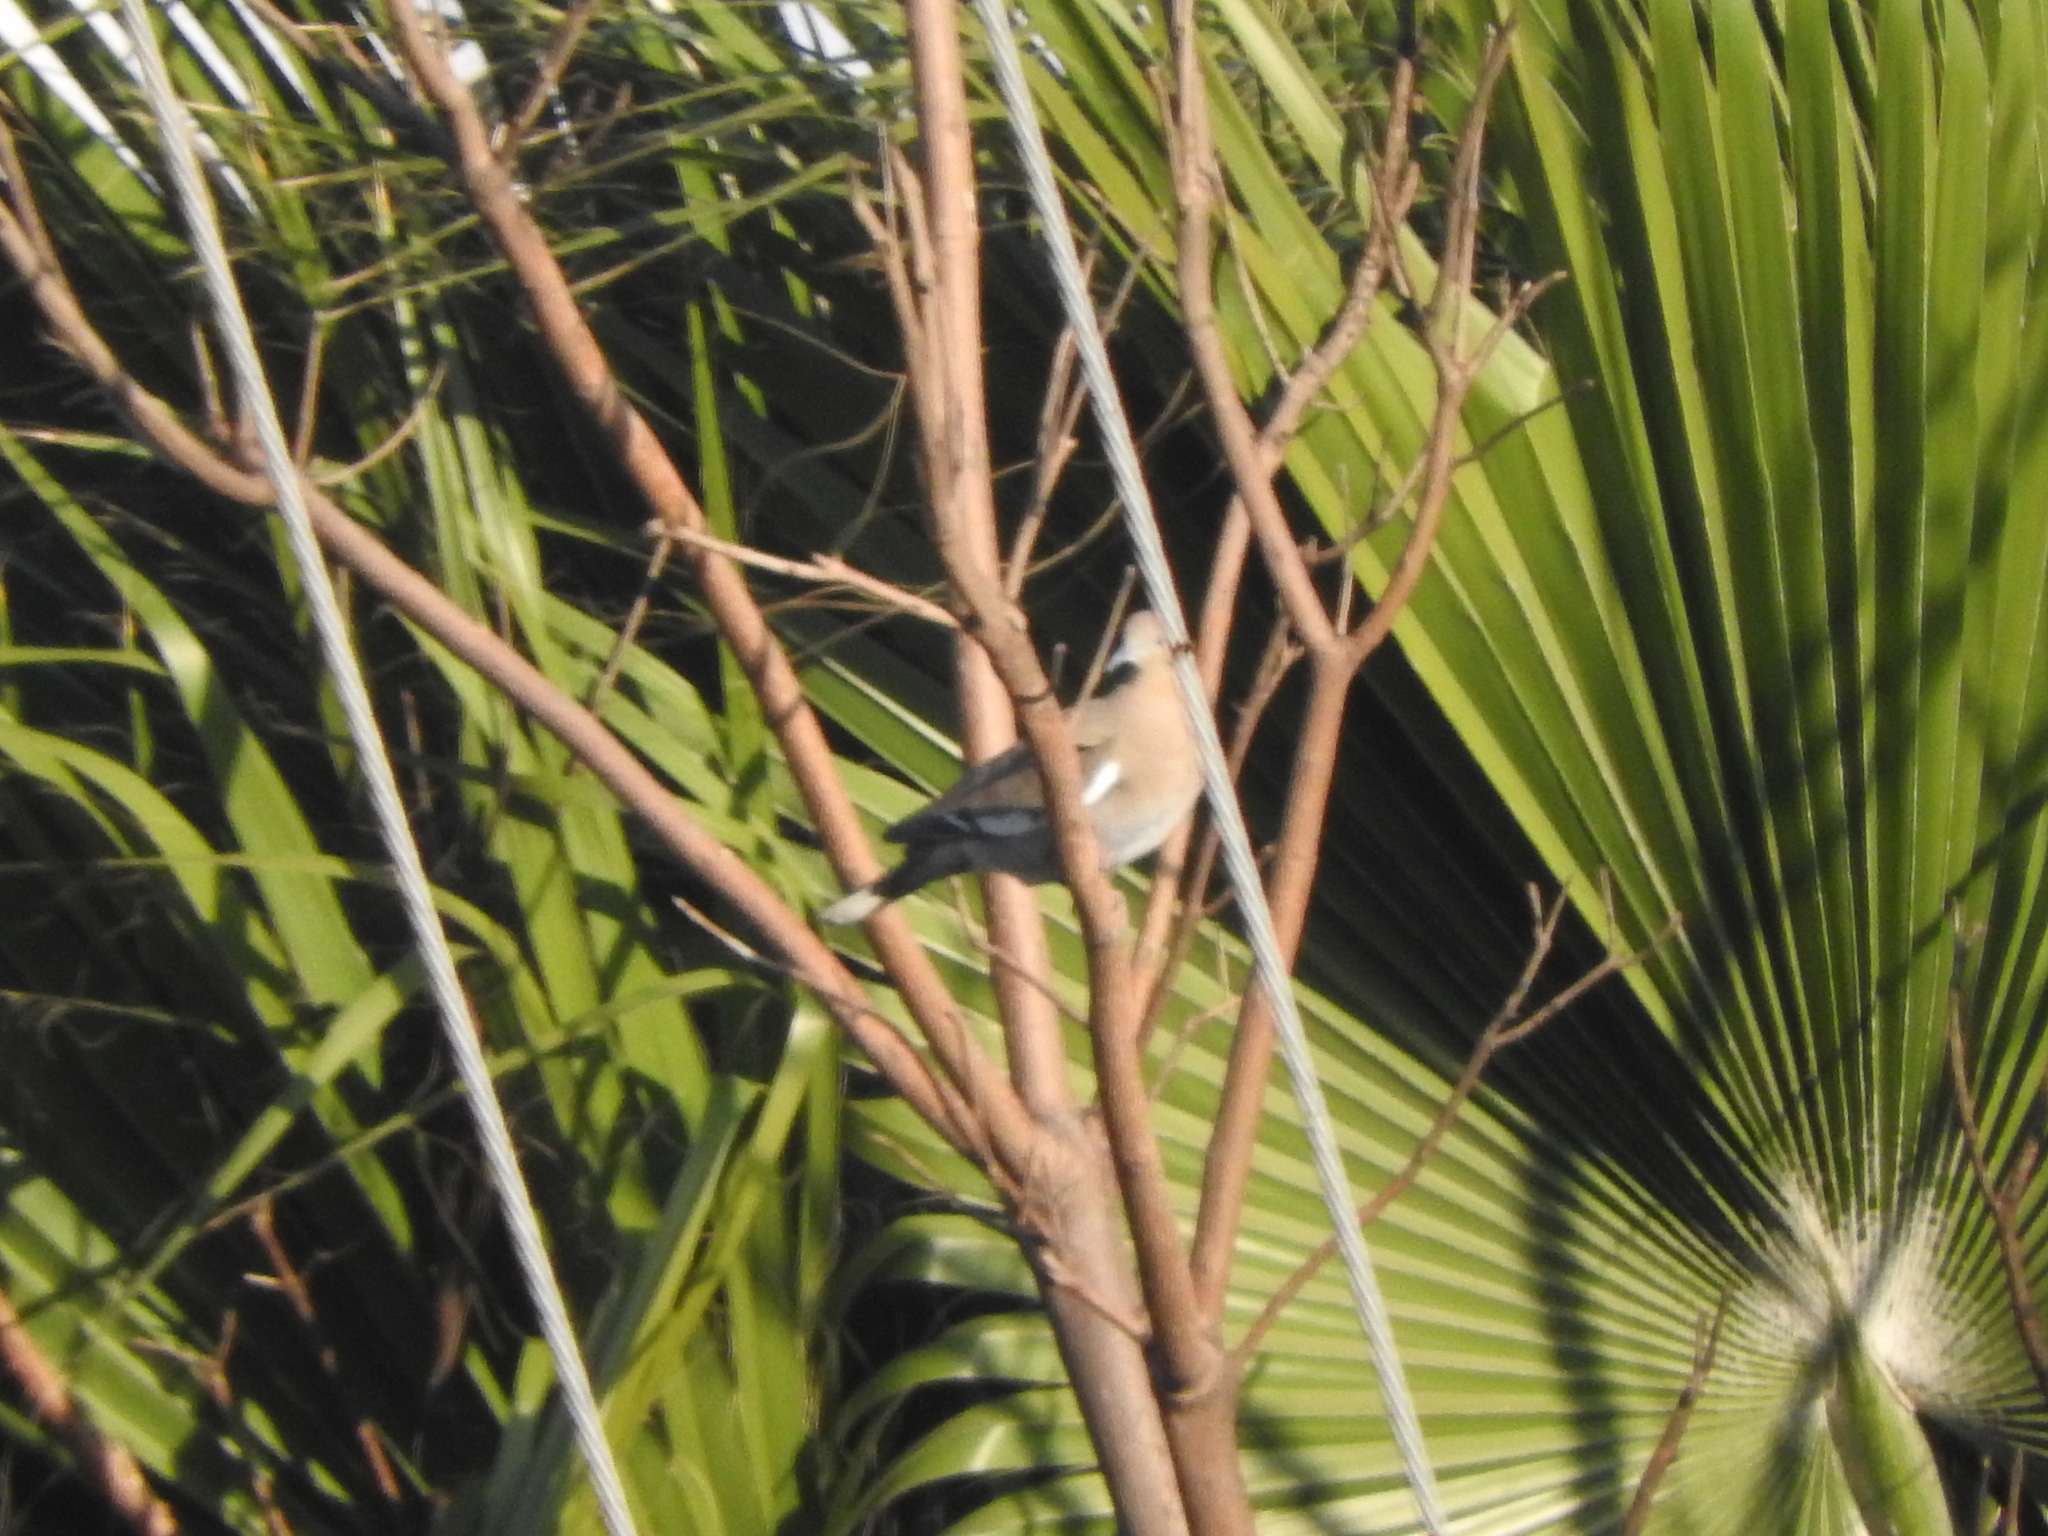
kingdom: Animalia
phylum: Chordata
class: Aves
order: Columbiformes
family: Columbidae
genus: Zenaida
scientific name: Zenaida asiatica
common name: White-winged dove
